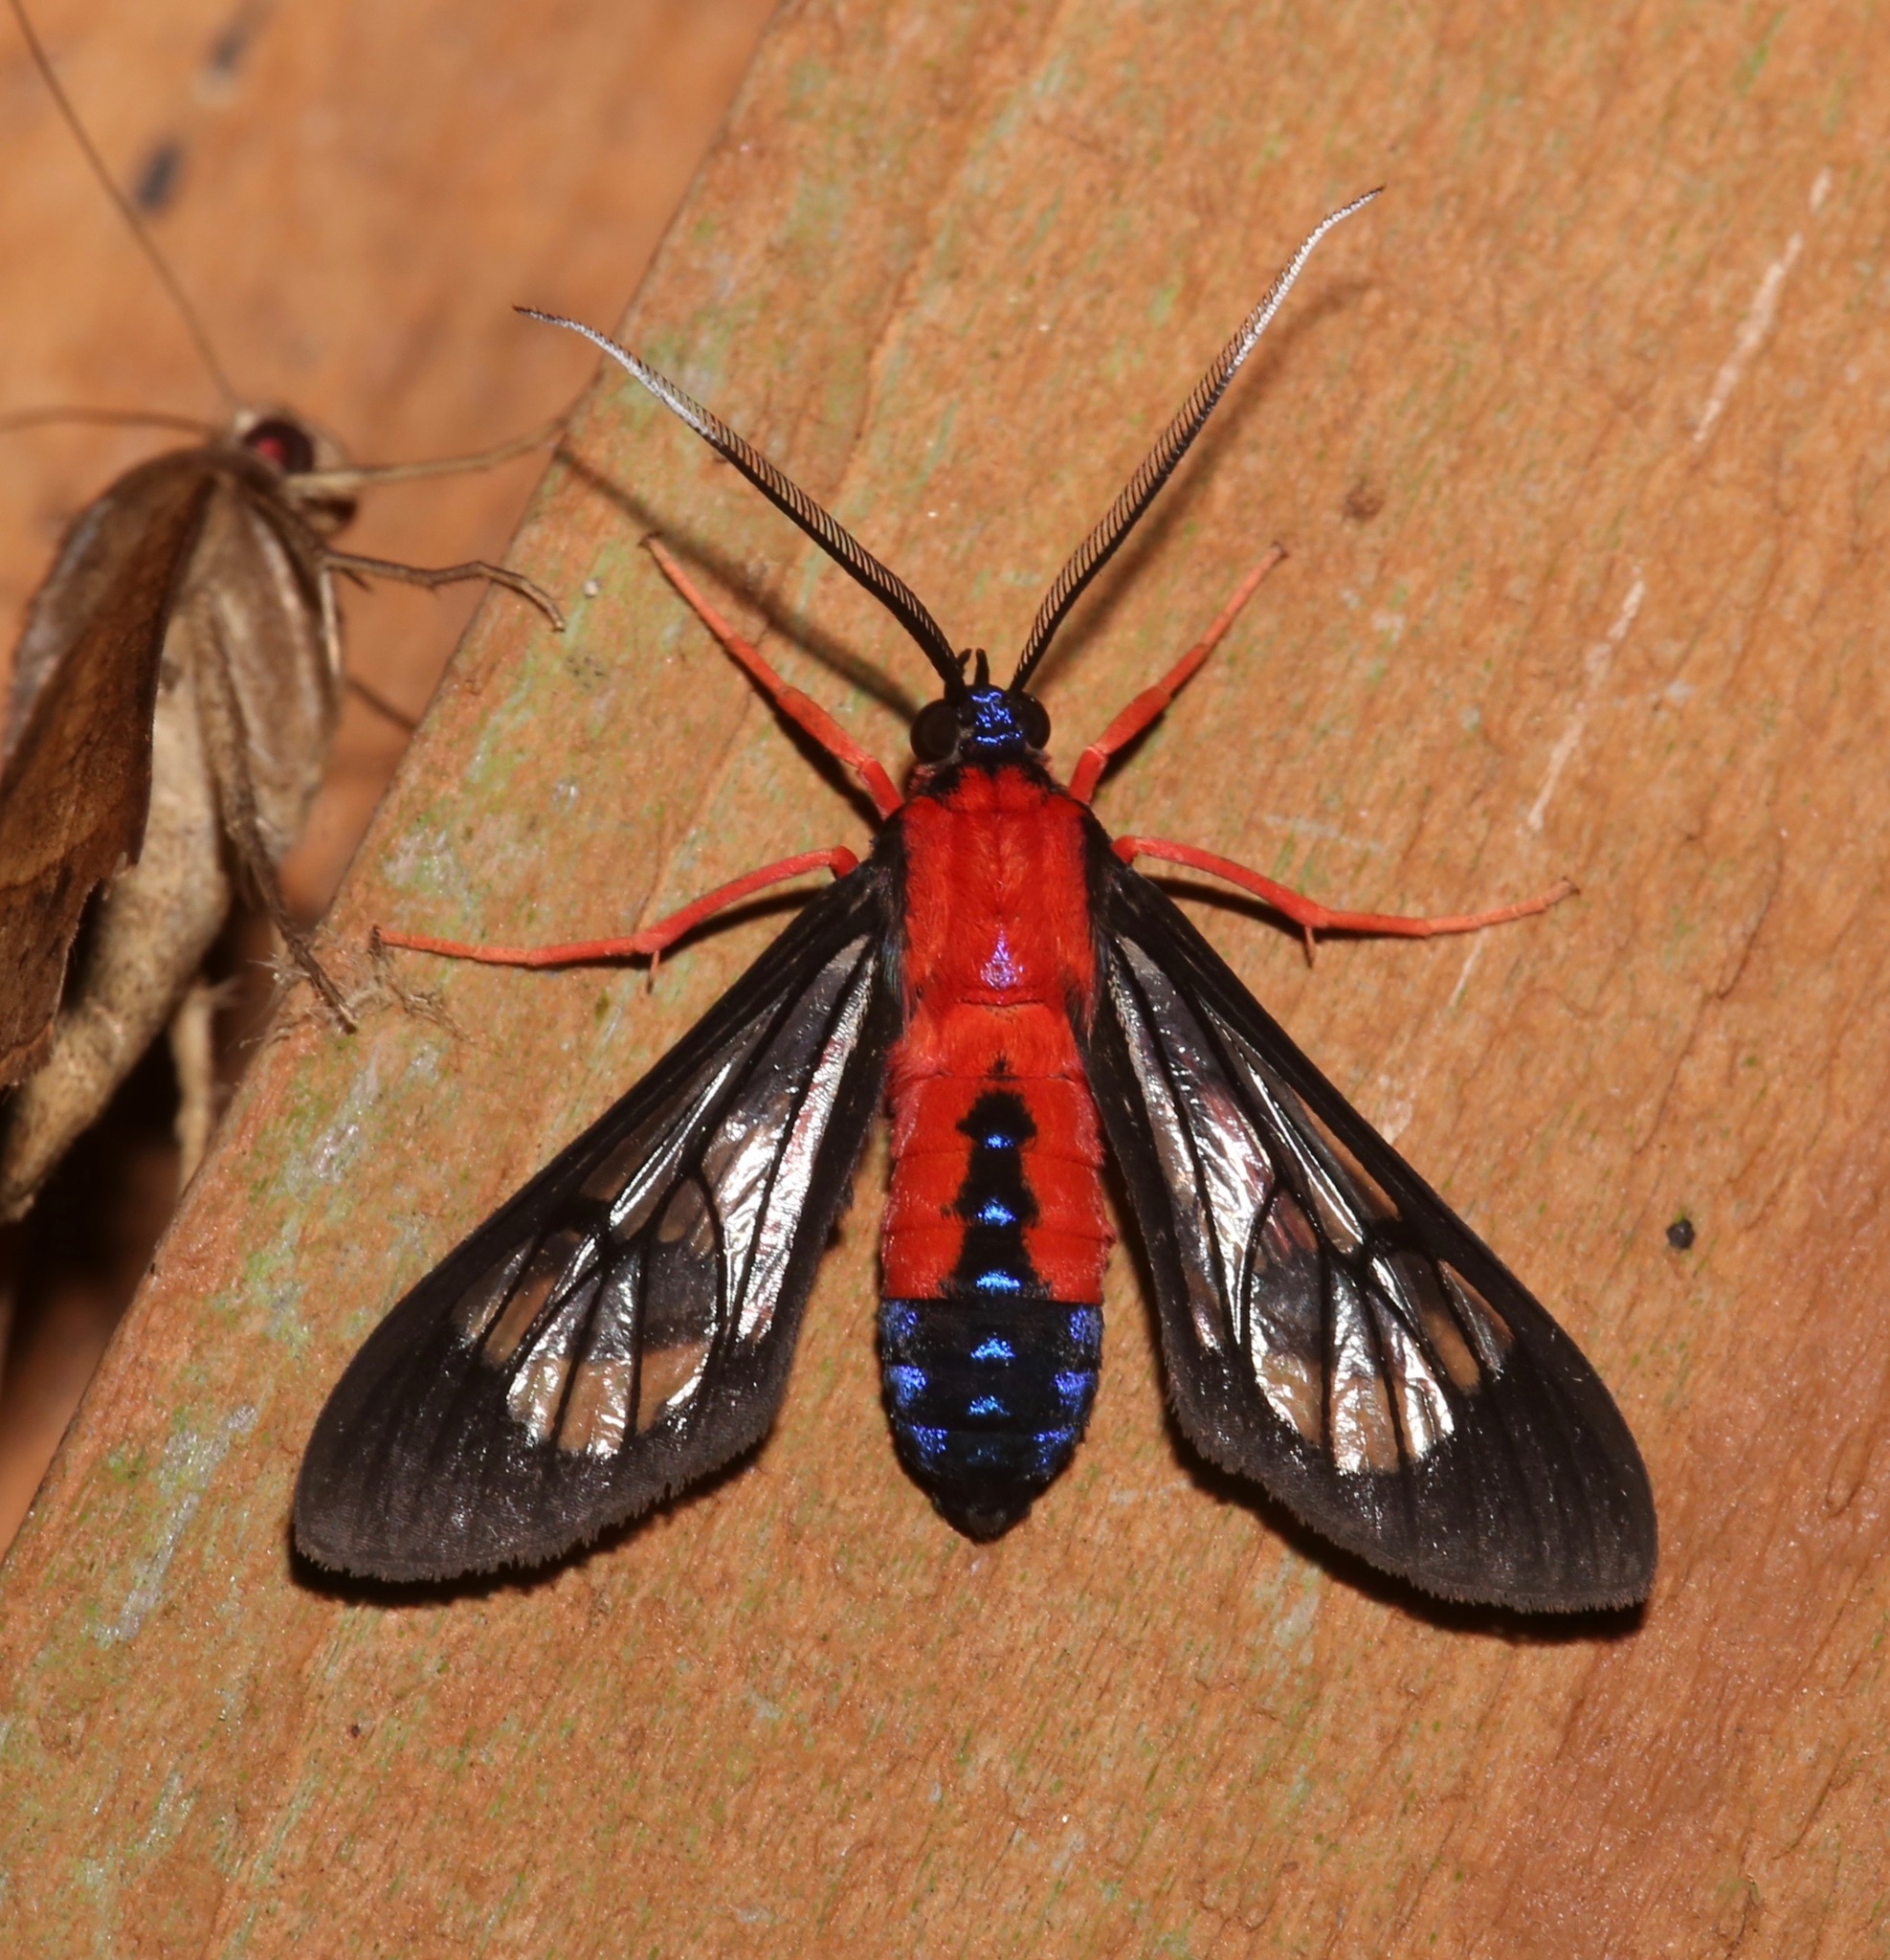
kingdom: Animalia
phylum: Arthropoda
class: Insecta
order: Lepidoptera
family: Erebidae
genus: Cosmosoma
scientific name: Cosmosoma myrodora
